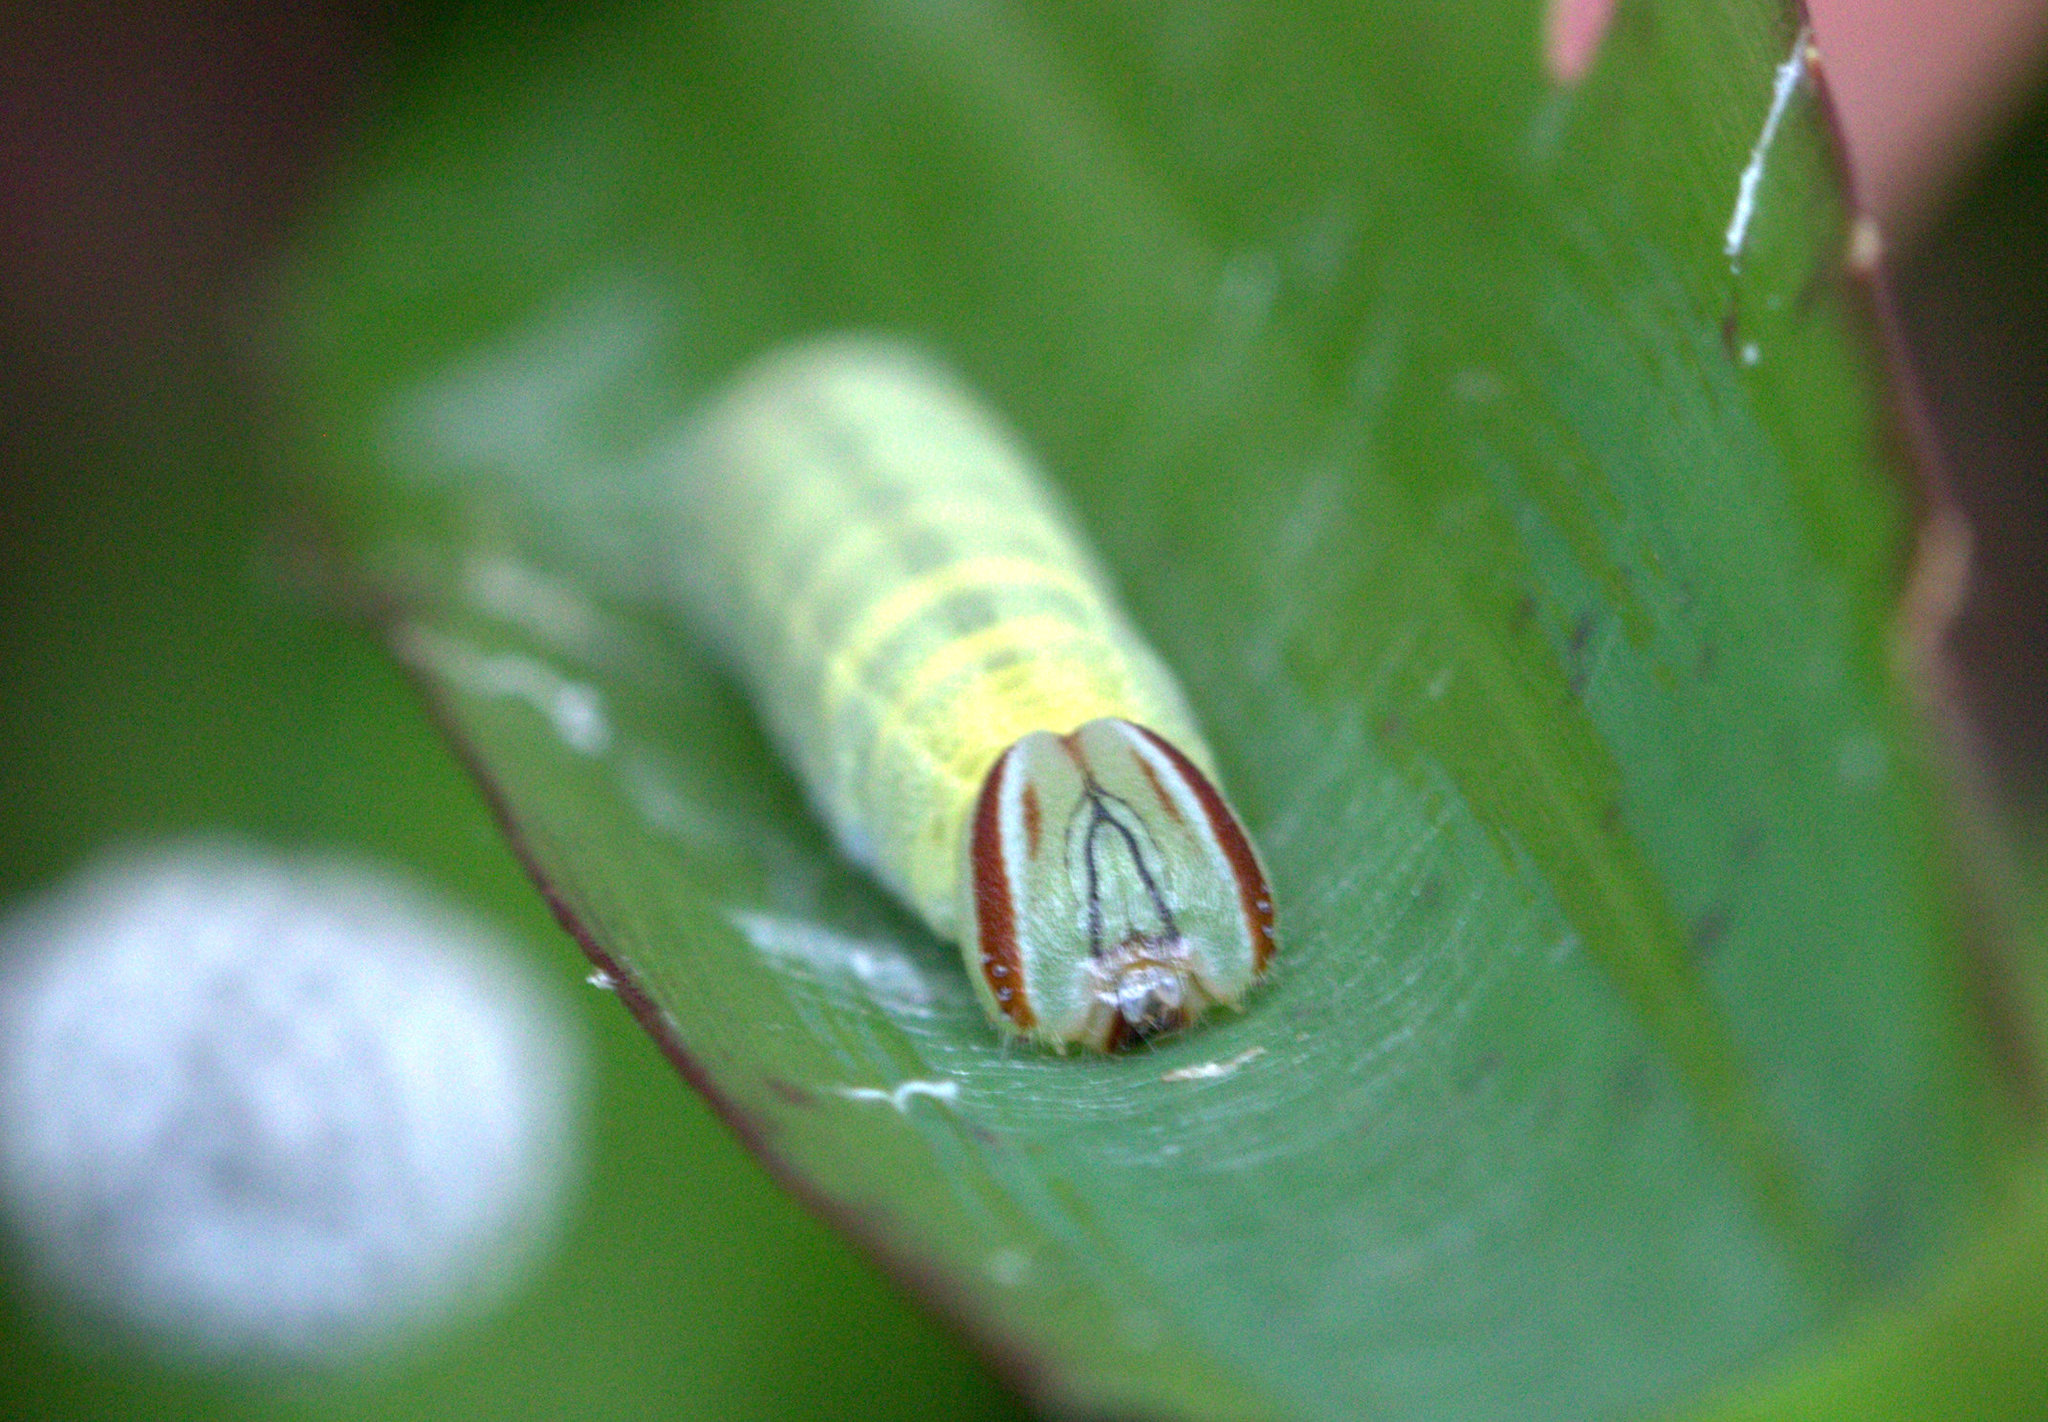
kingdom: Animalia
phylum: Arthropoda
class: Insecta
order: Lepidoptera
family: Hesperiidae
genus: Pelopidas
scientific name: Pelopidas agna
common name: Little branded swift
